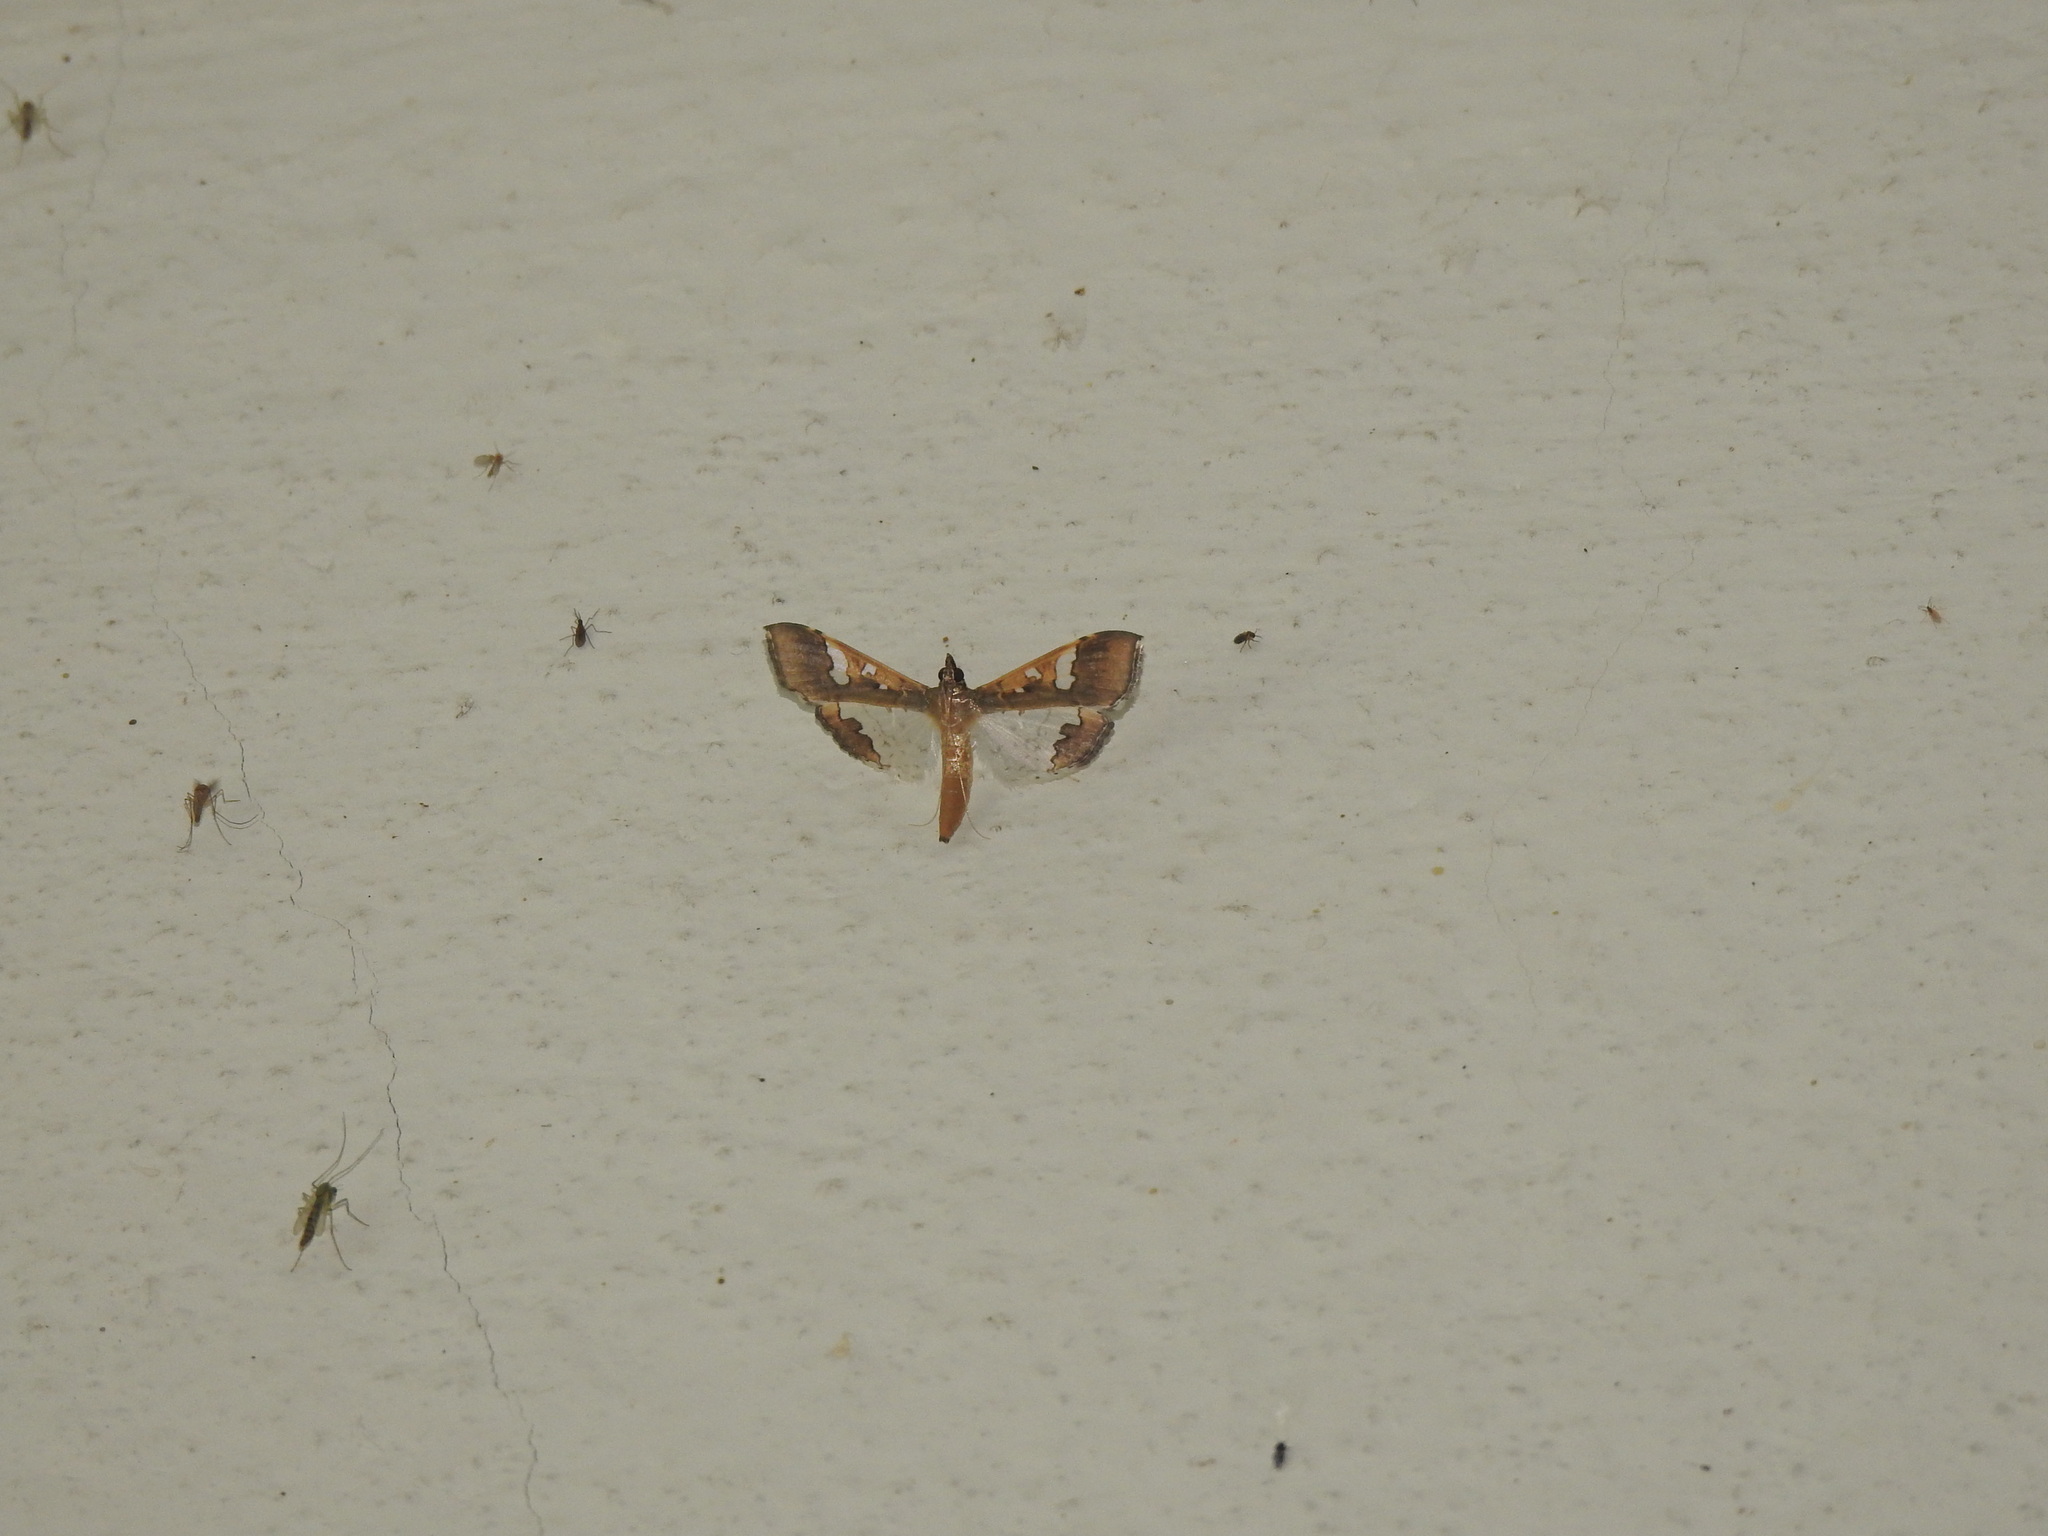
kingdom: Animalia
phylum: Arthropoda
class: Insecta
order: Lepidoptera
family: Crambidae
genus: Maruca
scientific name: Maruca vitrata
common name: Maruca pod borer
